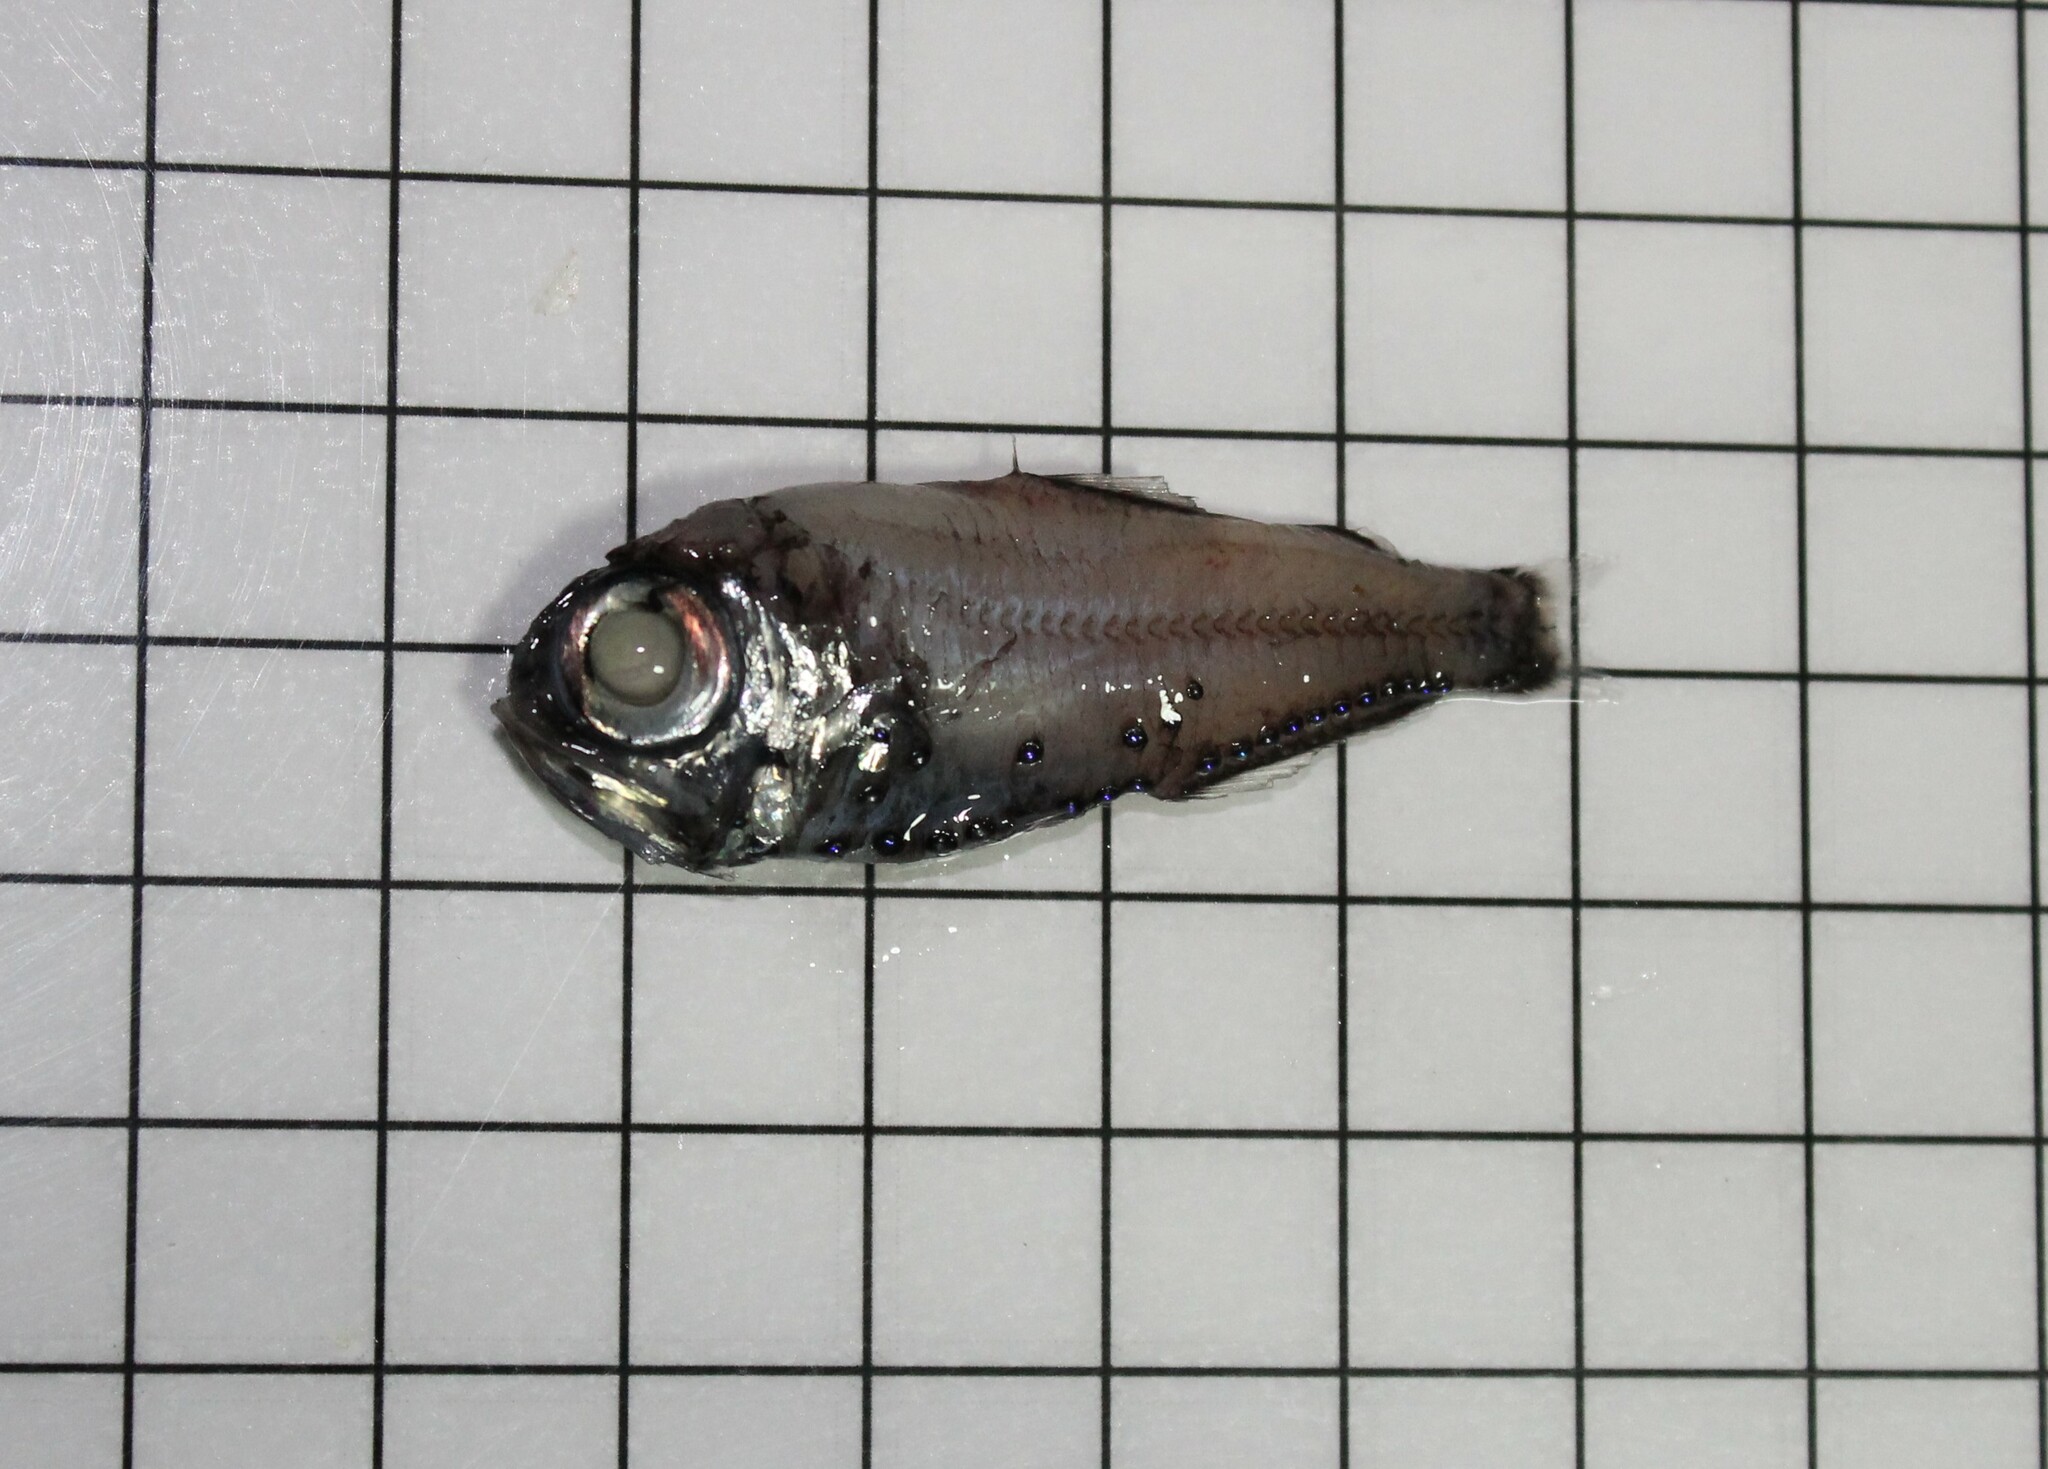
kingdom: Animalia
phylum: Chordata
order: Myctophiformes
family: Myctophidae
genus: Electrona
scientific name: Electrona risso
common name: Chubby flashlight fish
